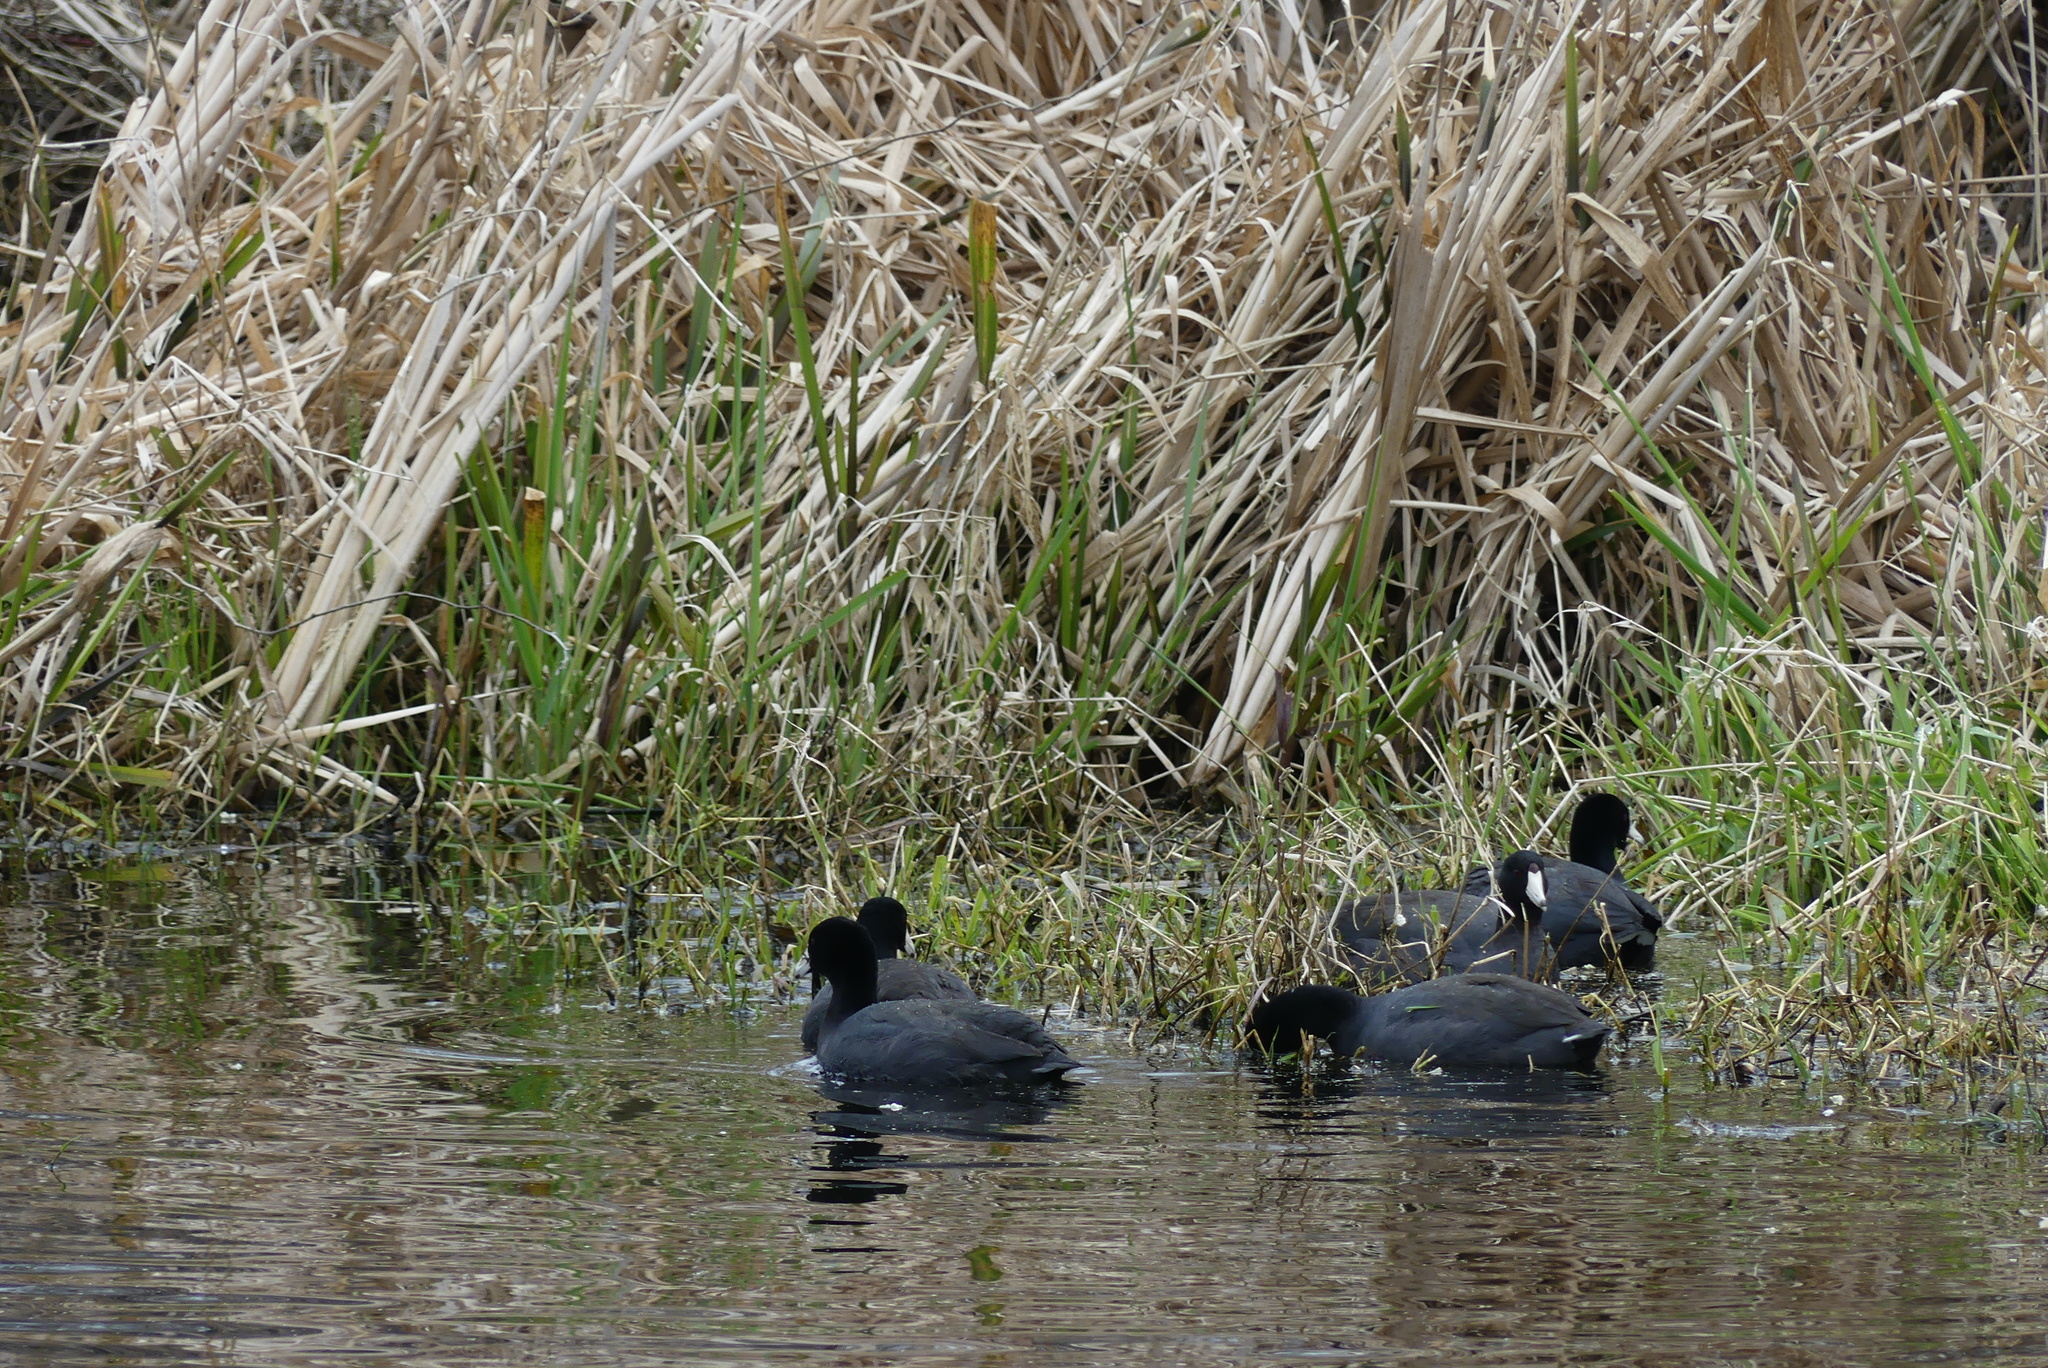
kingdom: Animalia
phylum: Chordata
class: Aves
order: Gruiformes
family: Rallidae
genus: Fulica
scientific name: Fulica americana
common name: American coot
